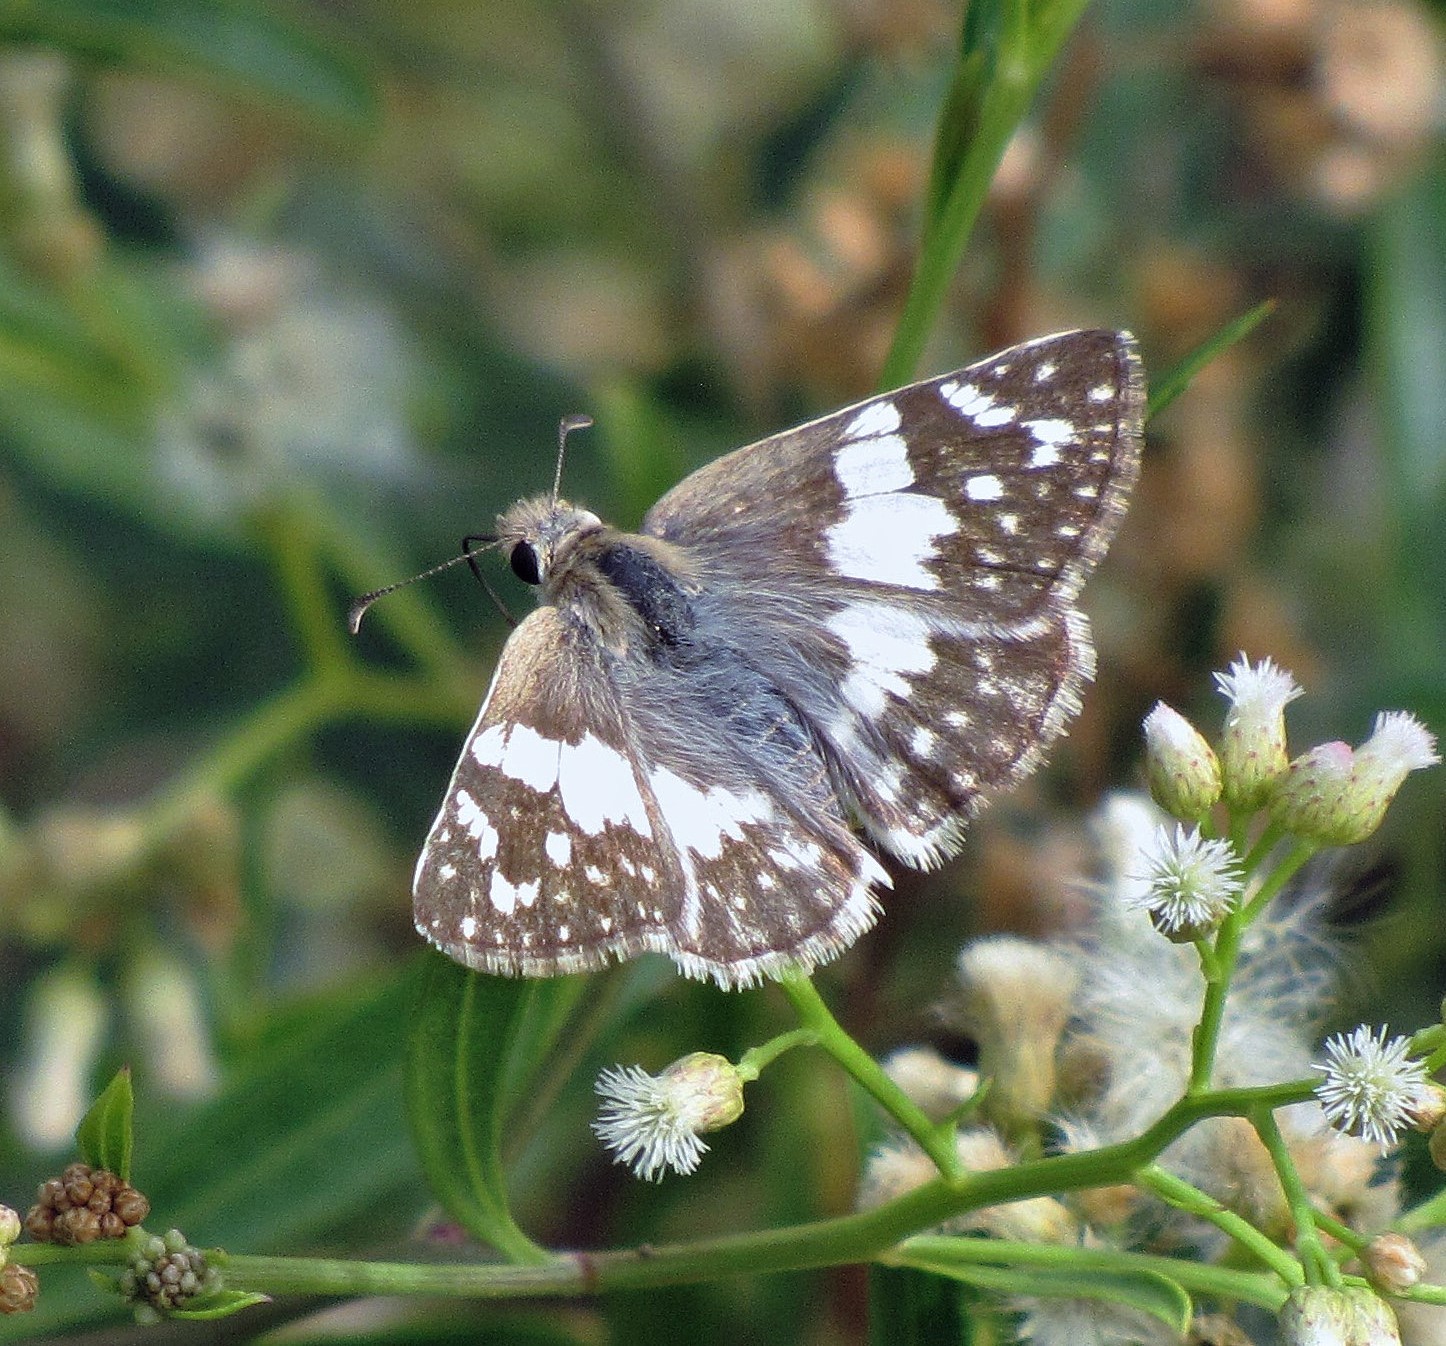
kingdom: Animalia
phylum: Arthropoda
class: Insecta
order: Lepidoptera
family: Hesperiidae
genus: Heliopyrgus
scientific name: Heliopyrgus domicella
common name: Erichson's white skipper
